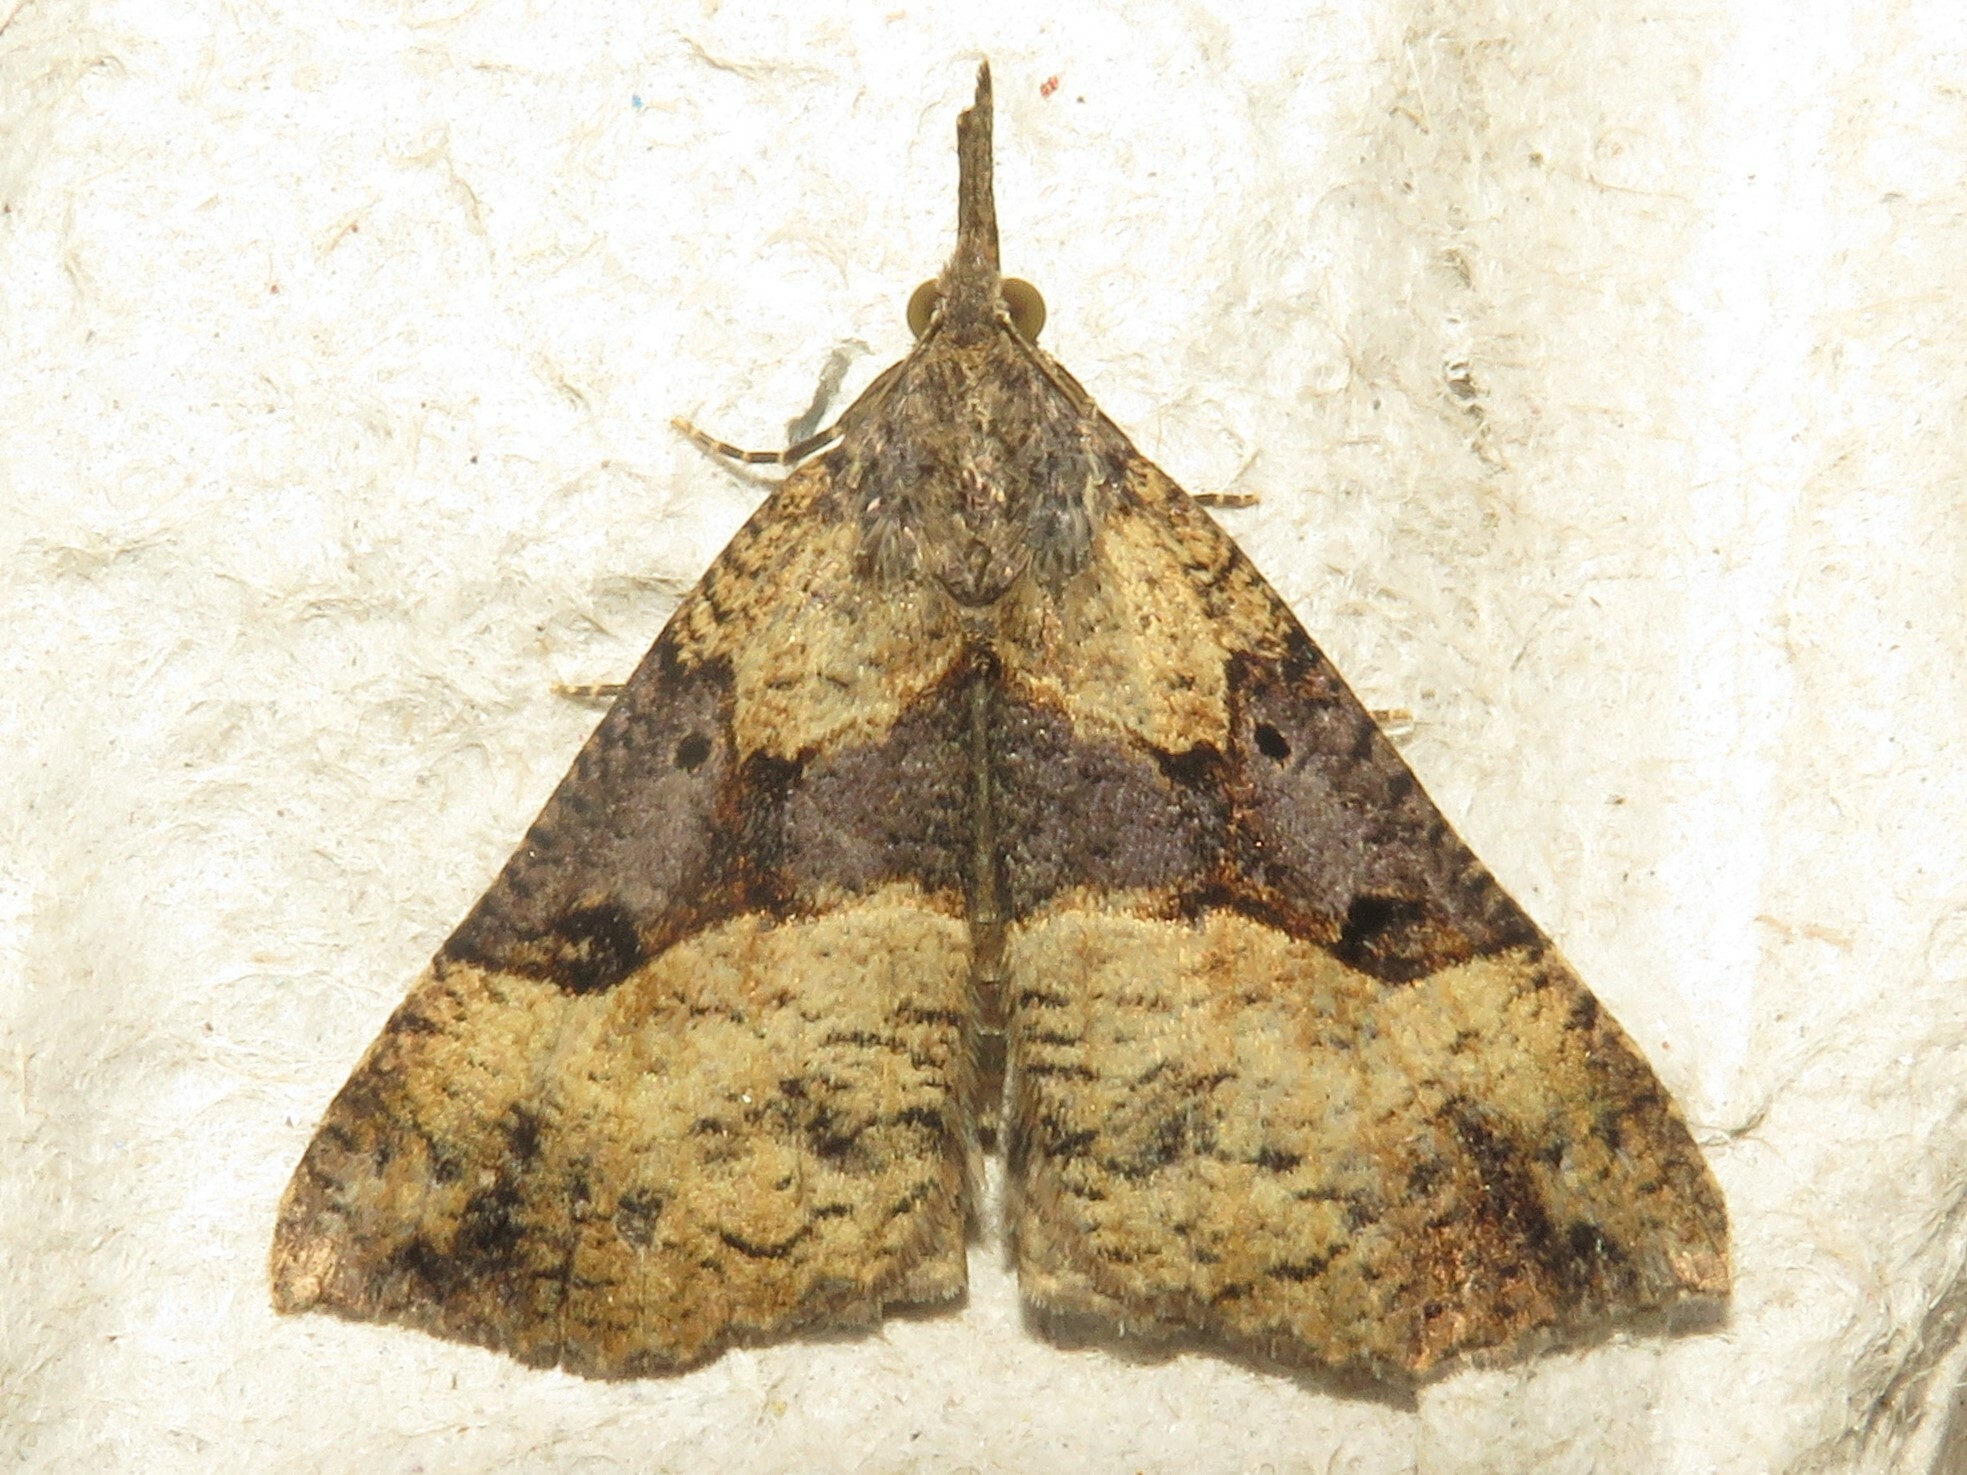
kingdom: Animalia
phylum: Arthropoda
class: Insecta
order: Lepidoptera
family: Erebidae
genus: Hypena
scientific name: Hypena edictalis
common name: Large snout
